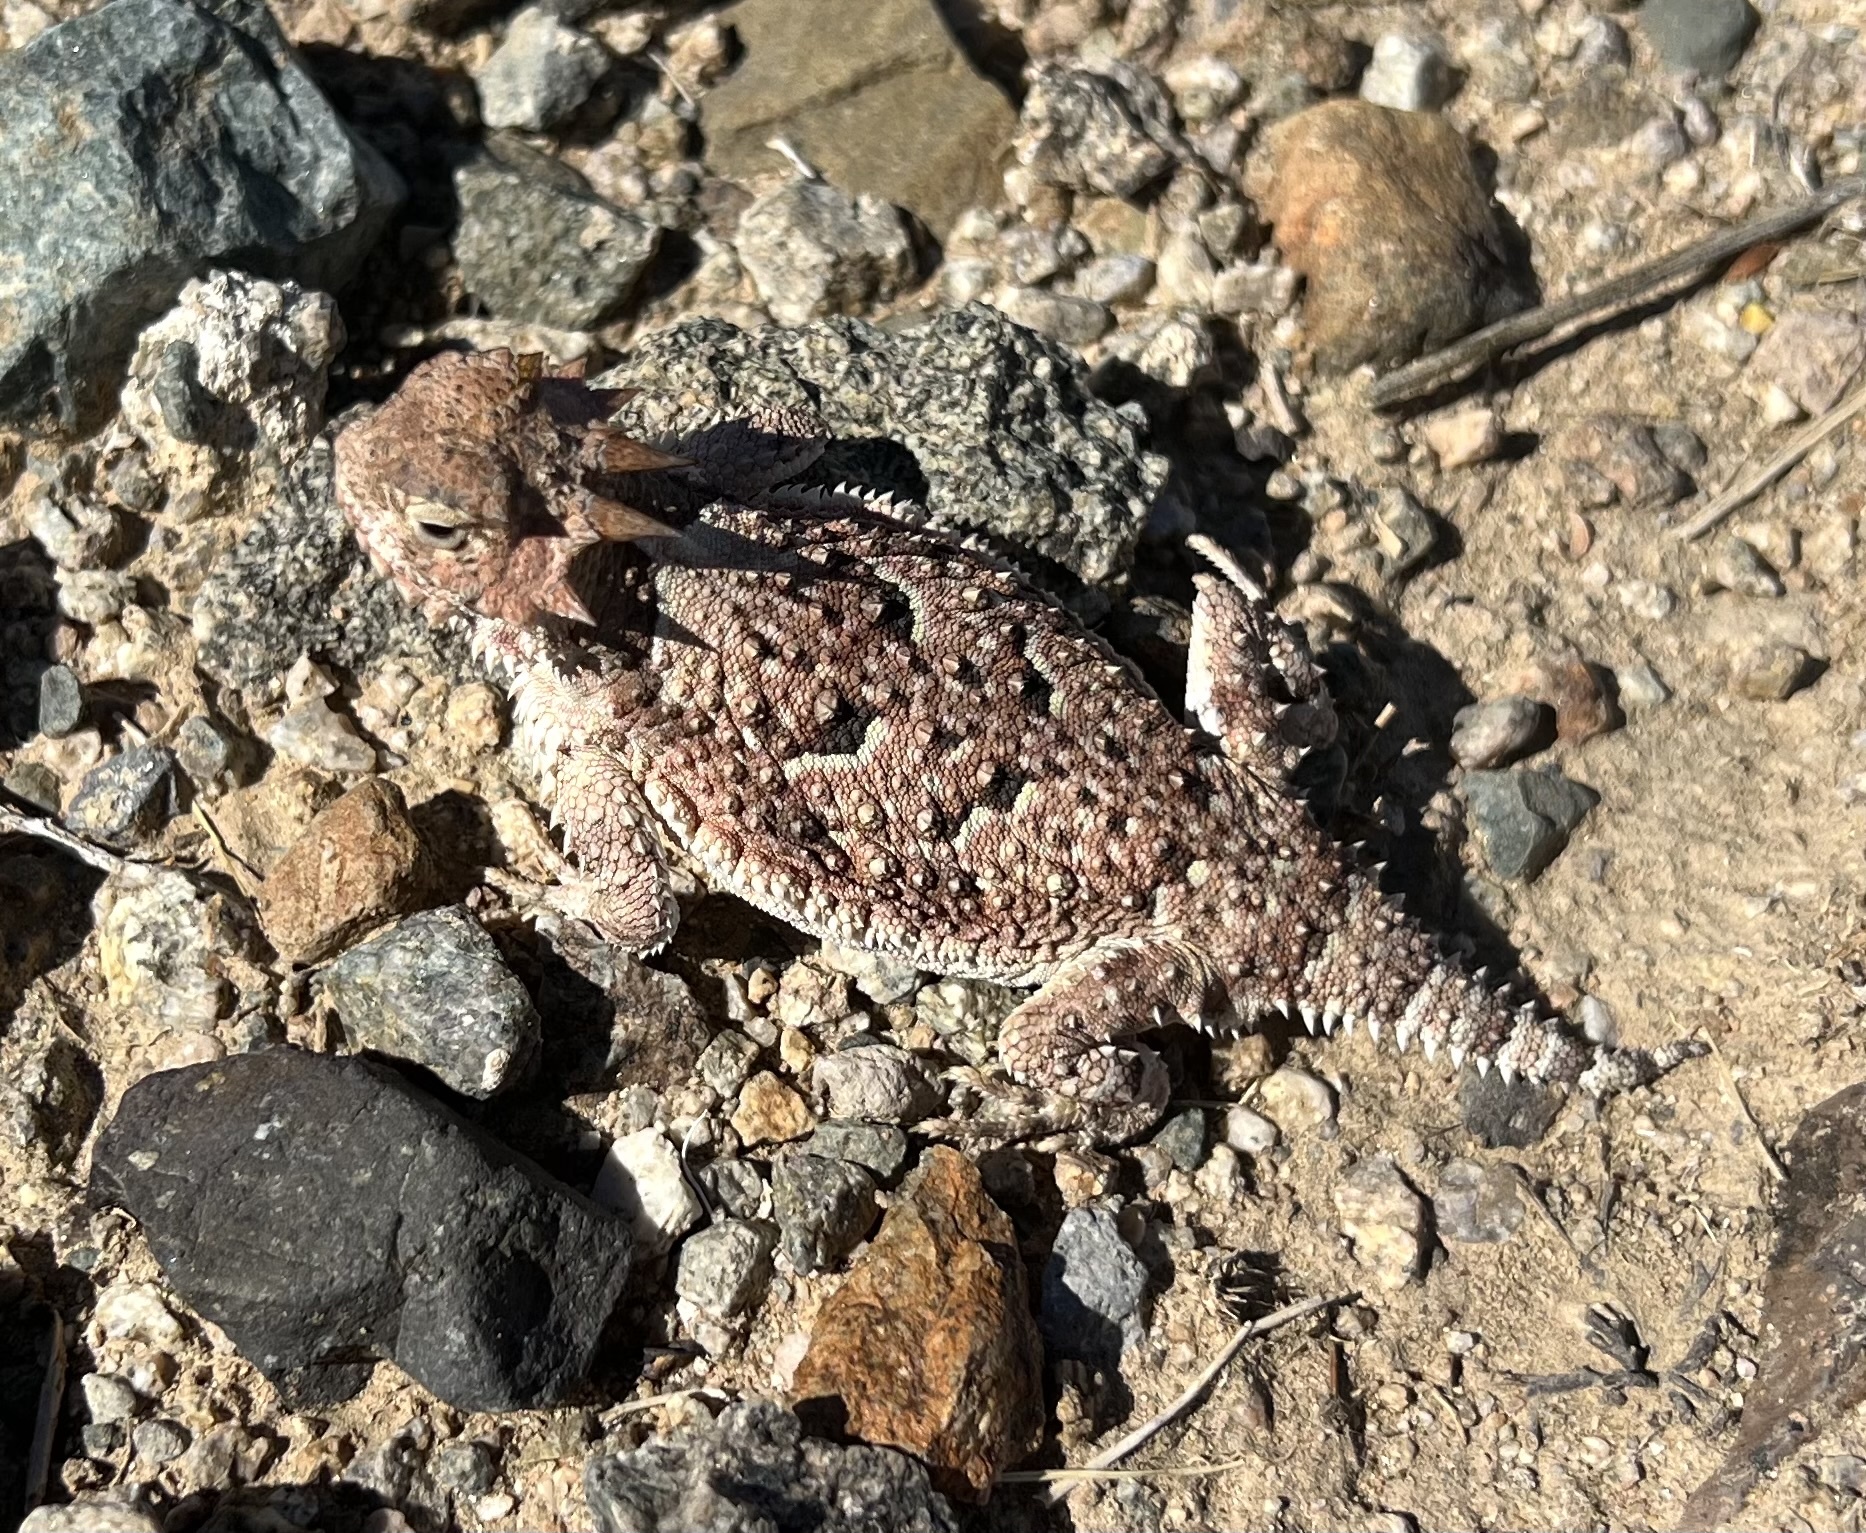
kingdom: Animalia
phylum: Chordata
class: Squamata
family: Phrynosomatidae
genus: Phrynosoma
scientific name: Phrynosoma platyrhinos
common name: Desert horned lizard
